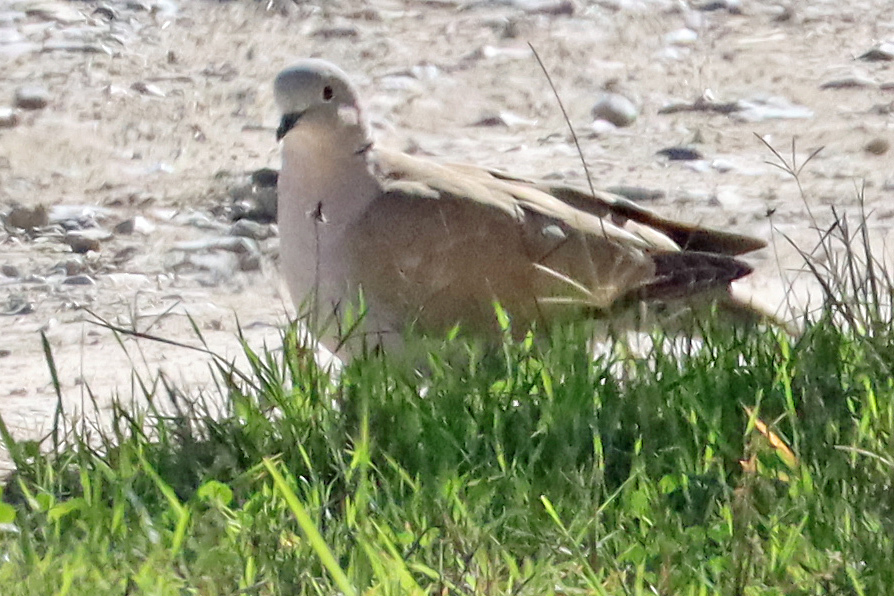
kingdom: Animalia
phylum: Chordata
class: Aves
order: Columbiformes
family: Columbidae
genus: Streptopelia
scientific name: Streptopelia decaocto
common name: Eurasian collared dove
